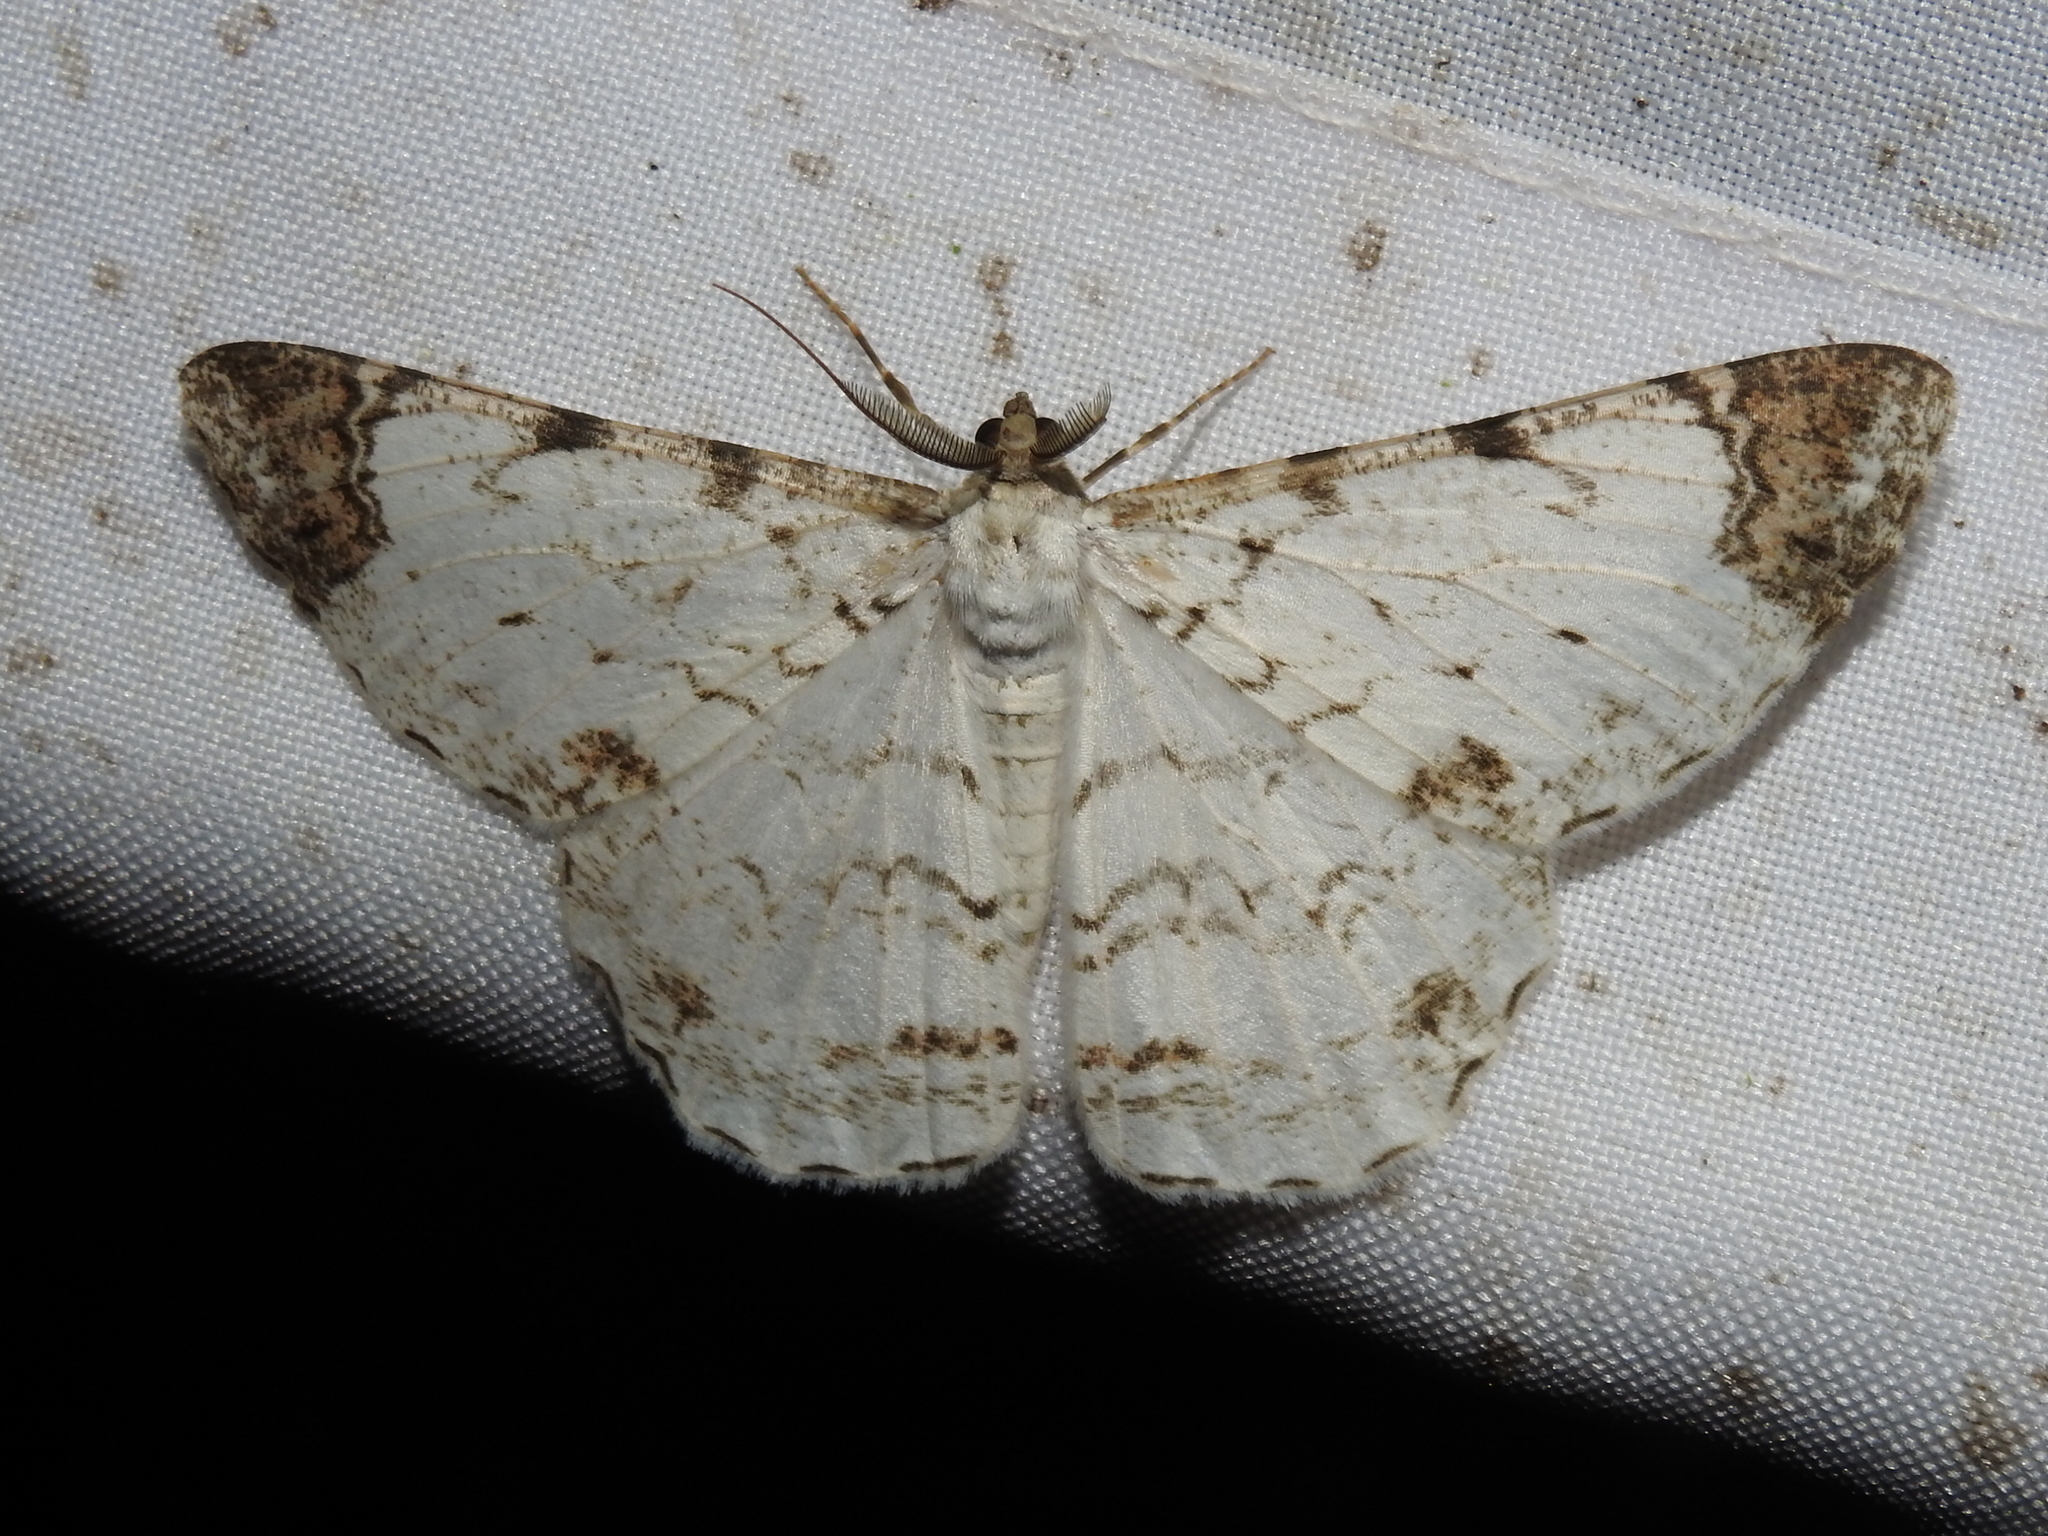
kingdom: Animalia
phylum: Arthropoda
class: Insecta
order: Lepidoptera
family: Geometridae
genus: Epimecis
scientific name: Epimecis puellaria
